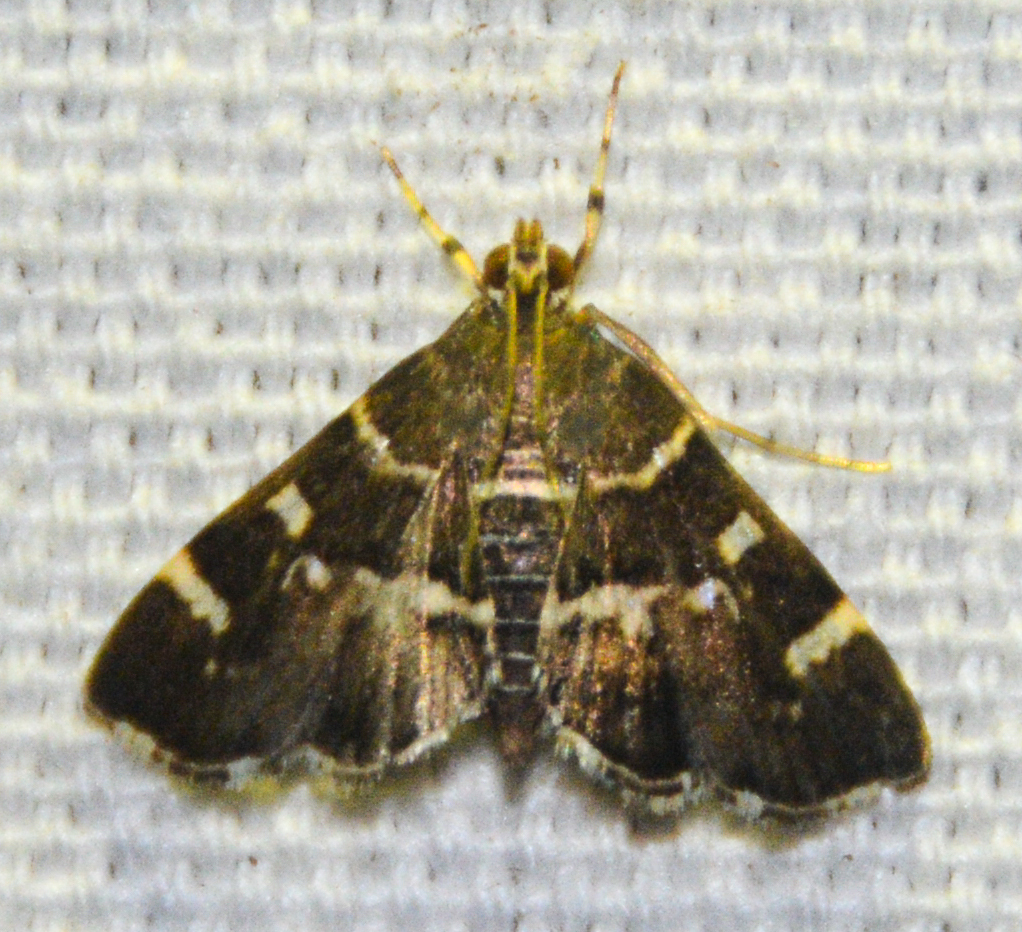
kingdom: Animalia
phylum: Arthropoda
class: Insecta
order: Lepidoptera
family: Crambidae
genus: Hymenia
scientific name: Hymenia perspectalis
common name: Spotted beet webworm
